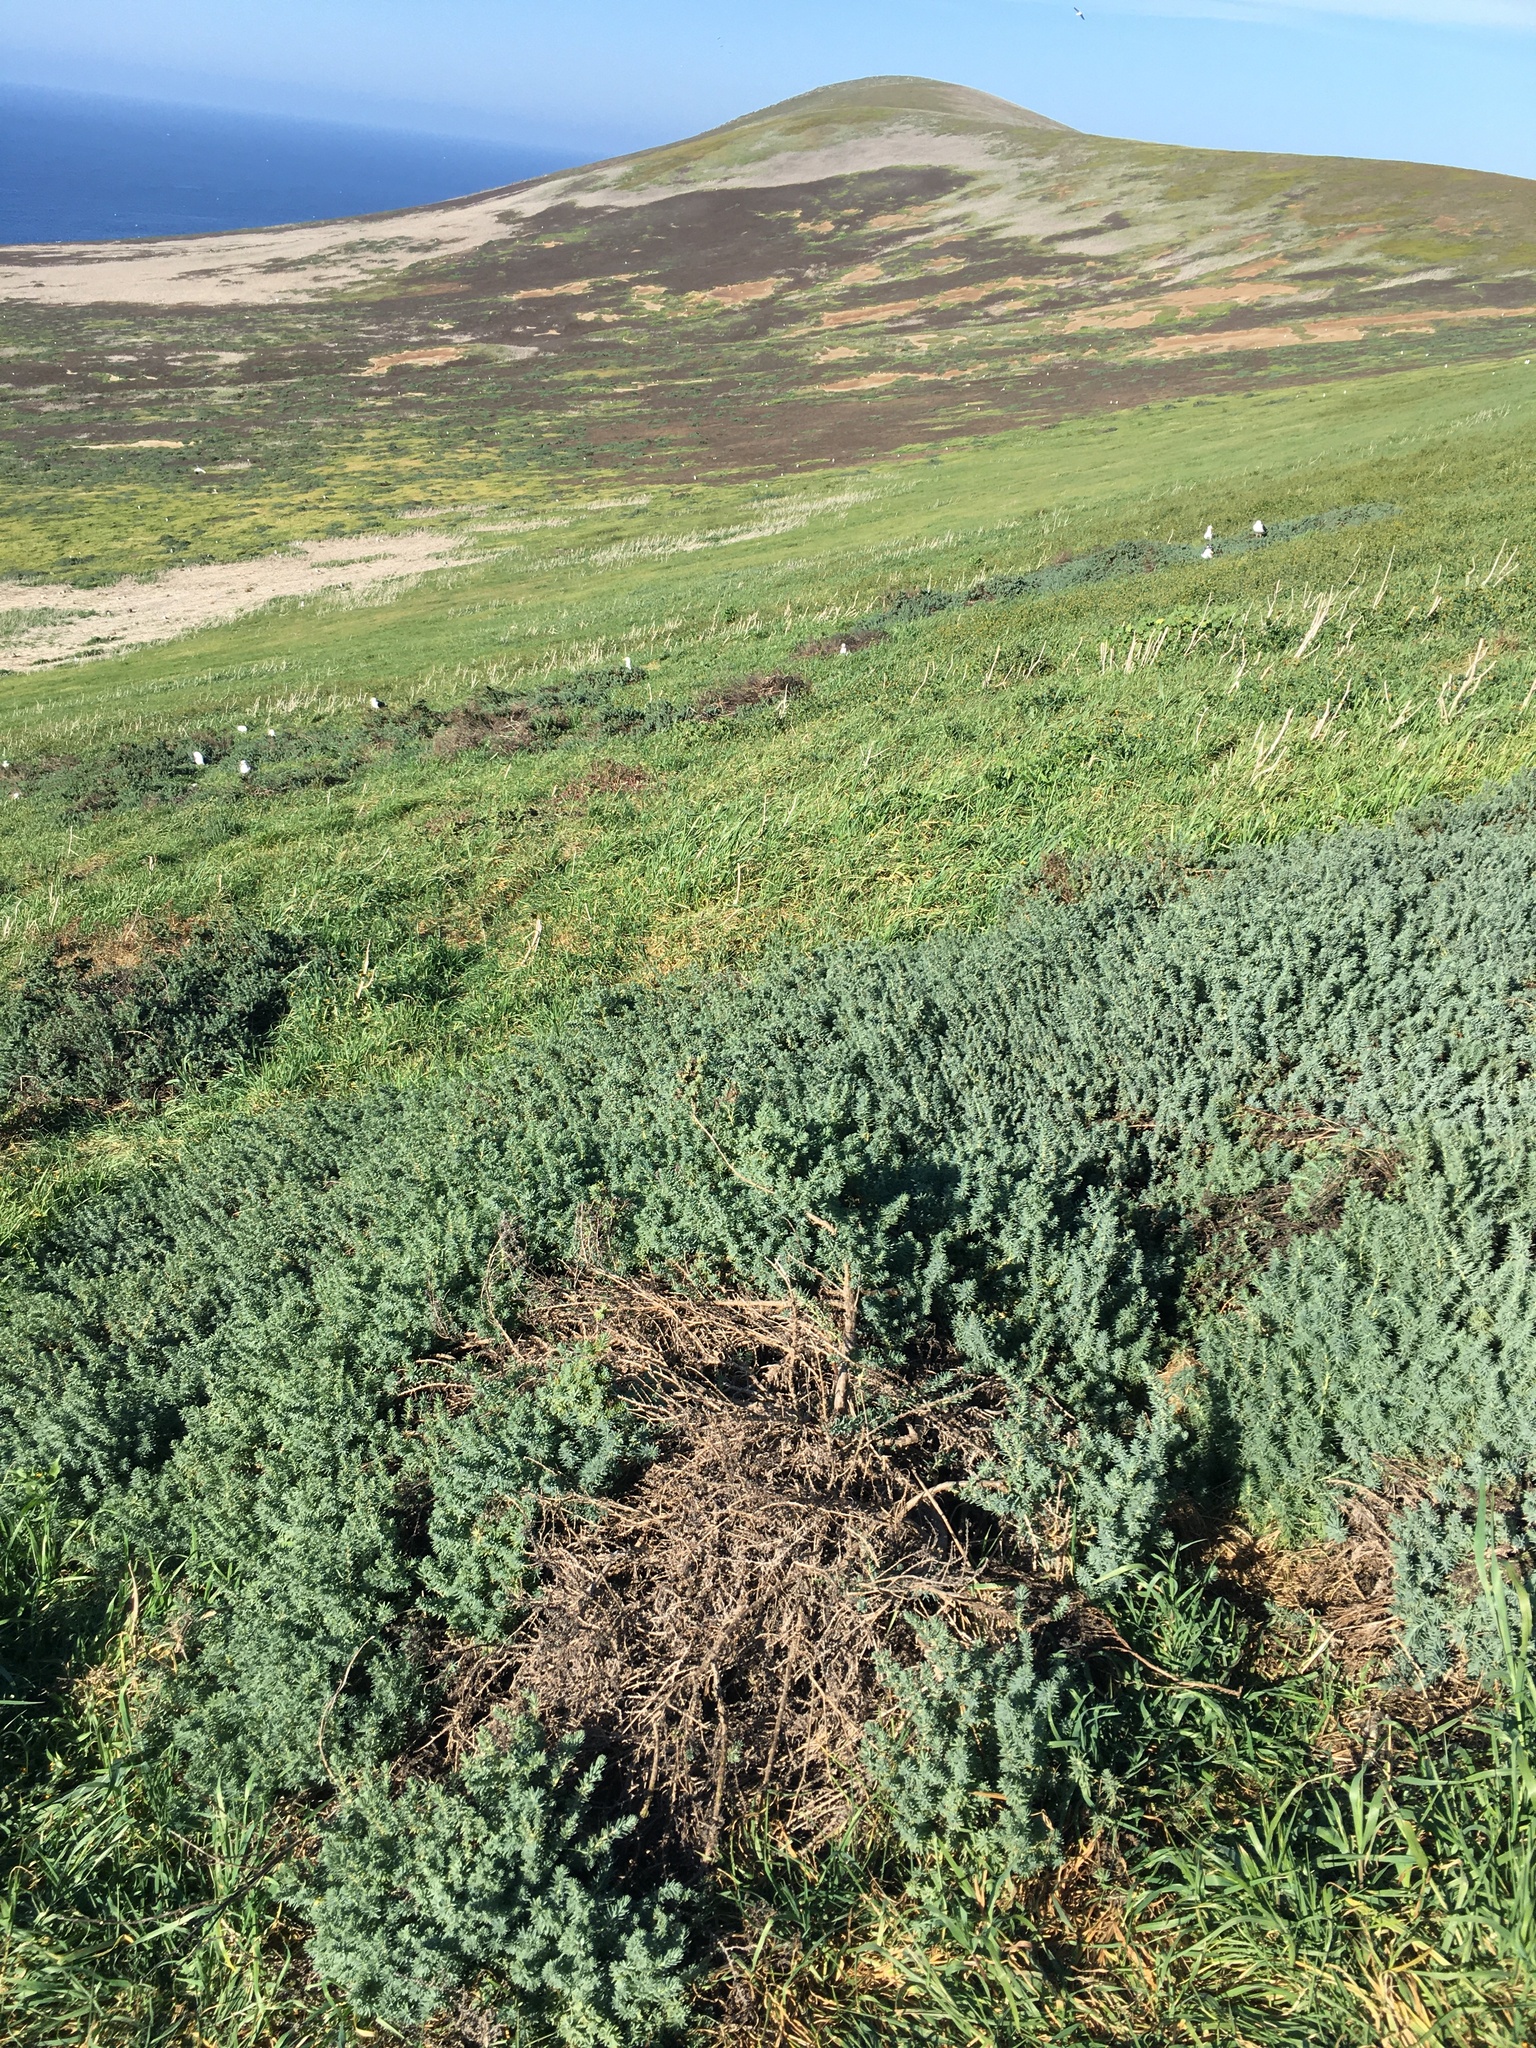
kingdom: Plantae
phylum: Tracheophyta
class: Magnoliopsida
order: Caryophyllales
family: Amaranthaceae
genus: Suaeda
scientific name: Suaeda taxifolia
